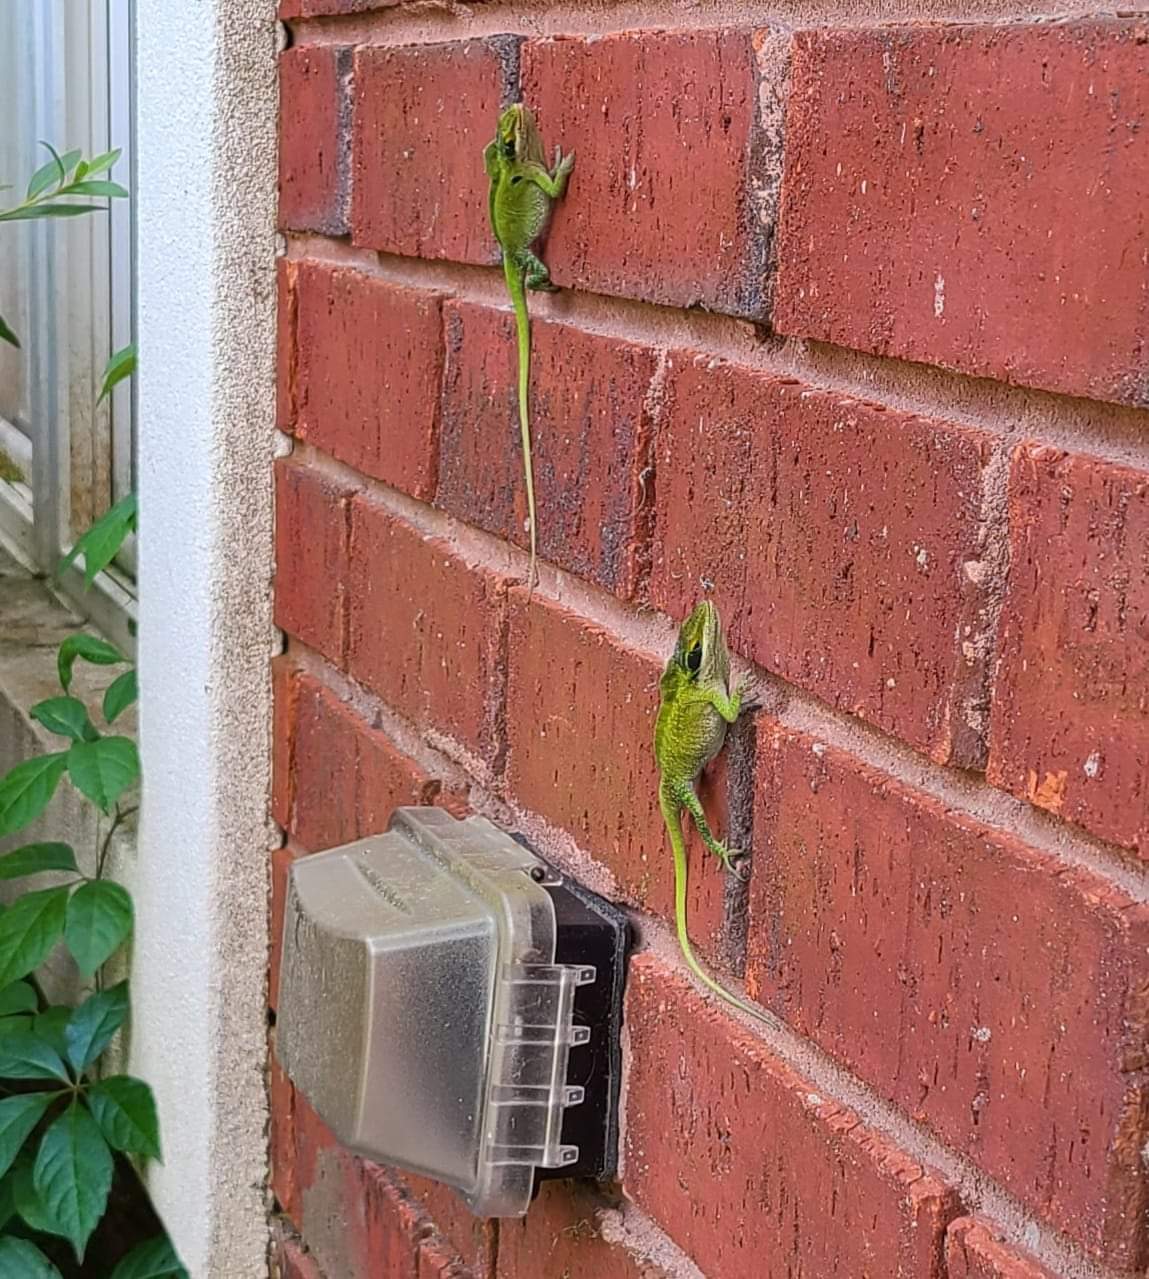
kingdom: Animalia
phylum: Chordata
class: Squamata
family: Dactyloidae
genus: Anolis
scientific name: Anolis carolinensis
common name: Green anole
